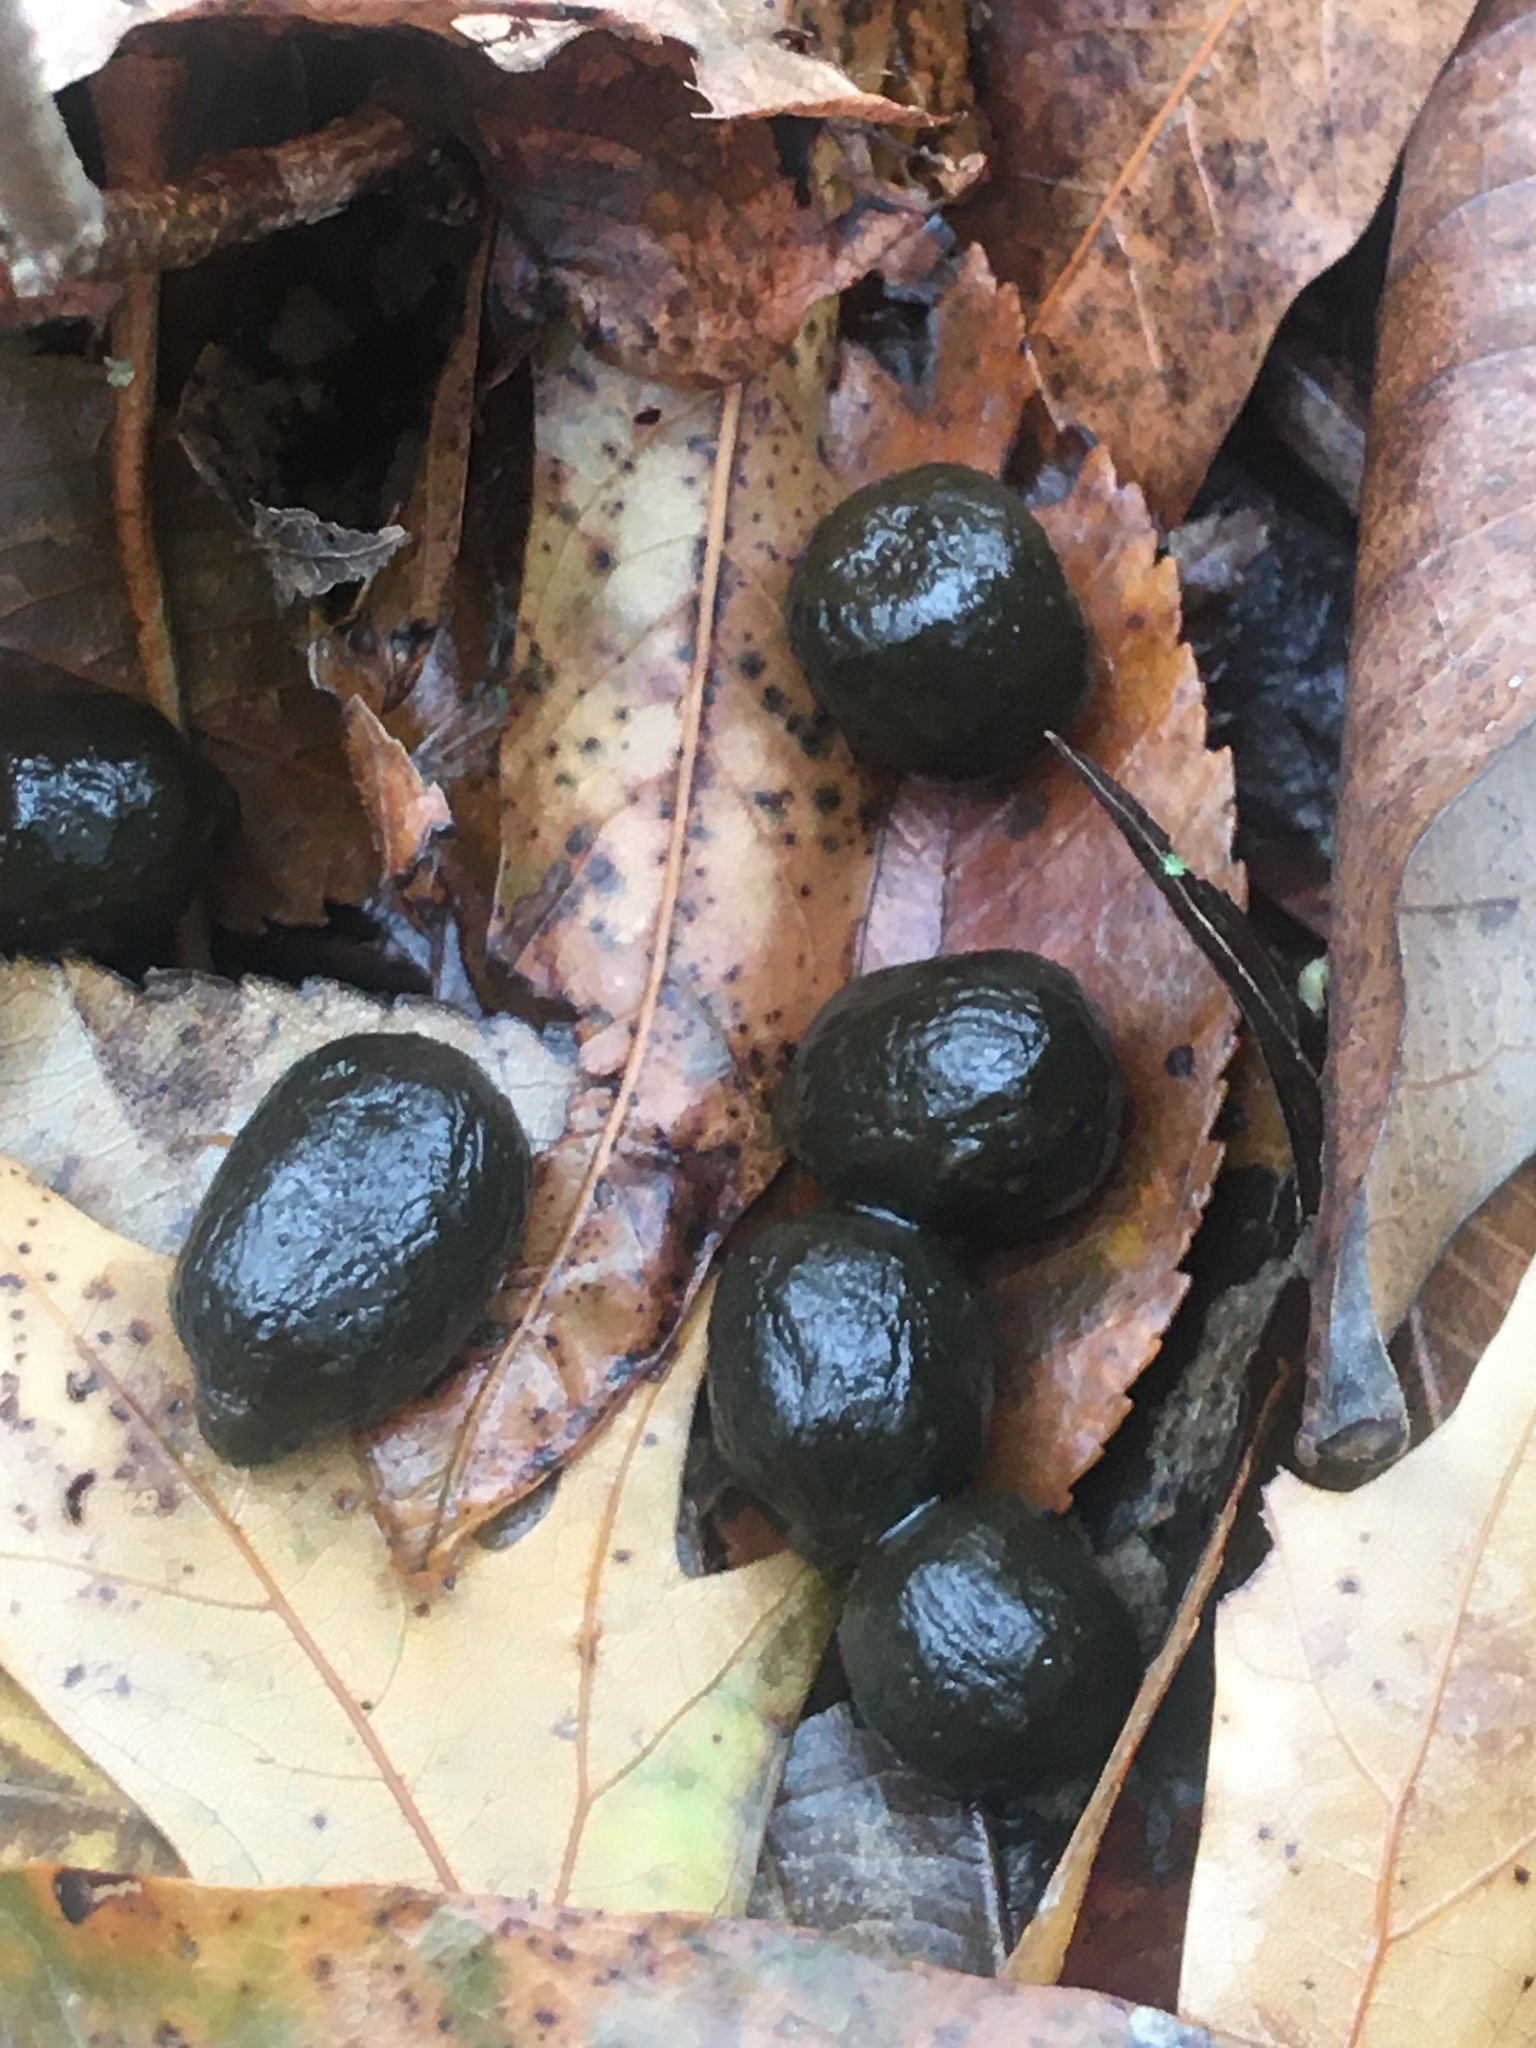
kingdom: Animalia
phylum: Chordata
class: Mammalia
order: Artiodactyla
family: Cervidae
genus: Odocoileus
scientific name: Odocoileus virginianus
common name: White-tailed deer
